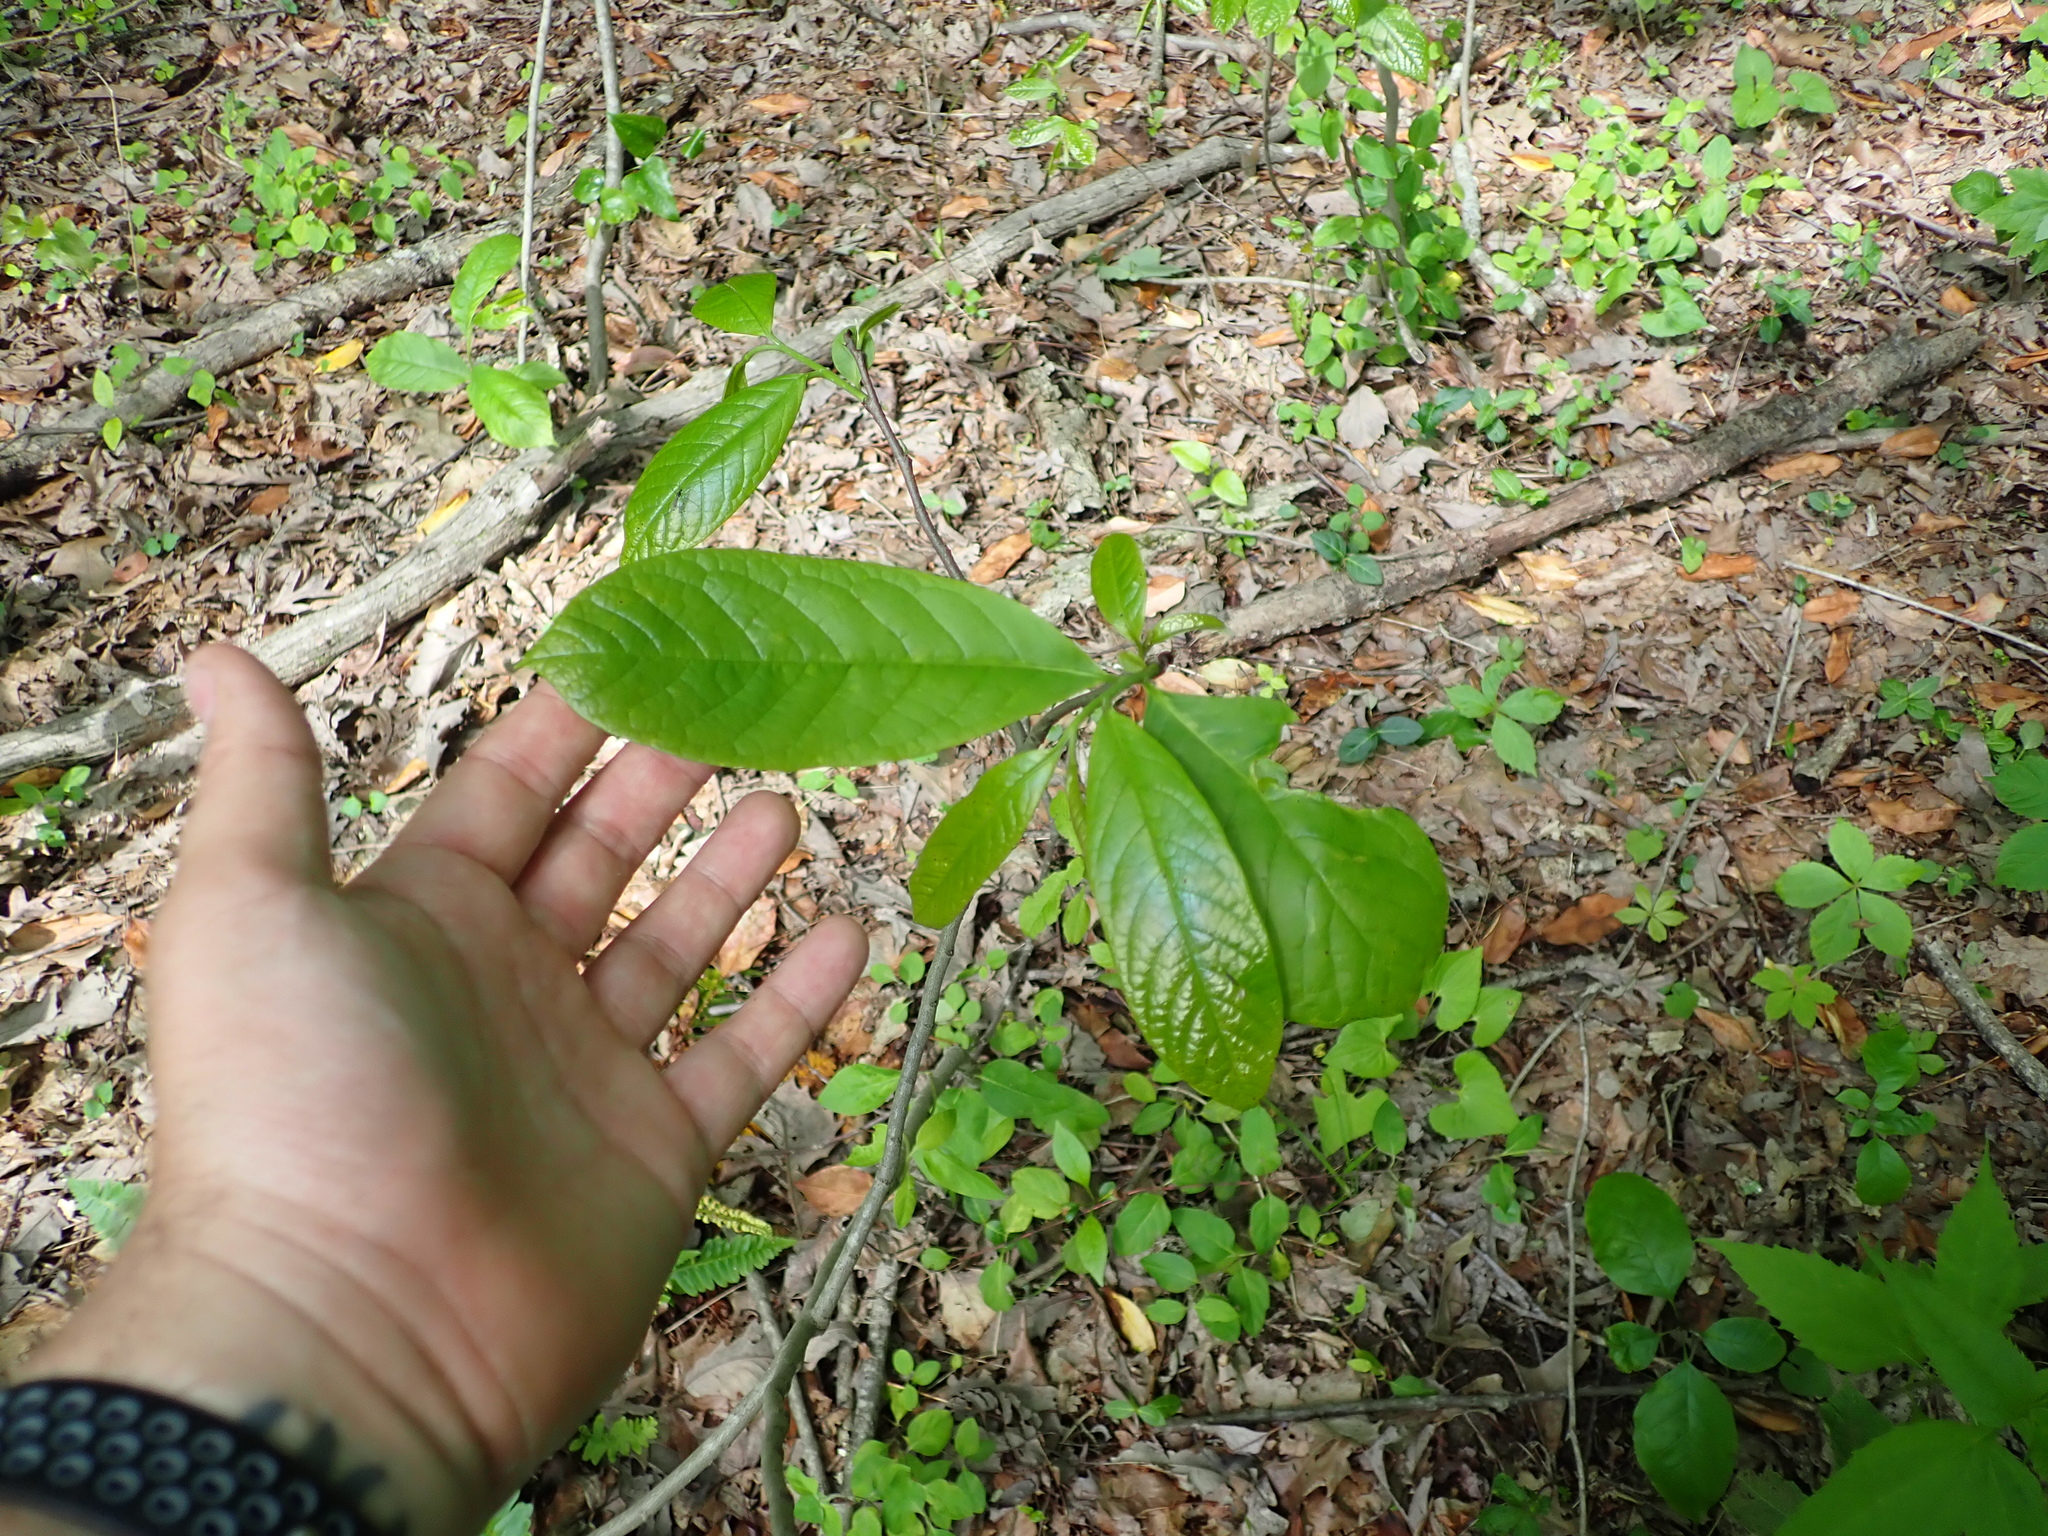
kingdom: Plantae
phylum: Tracheophyta
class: Magnoliopsida
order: Magnoliales
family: Annonaceae
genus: Asimina
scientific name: Asimina triloba
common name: Dog-banana
